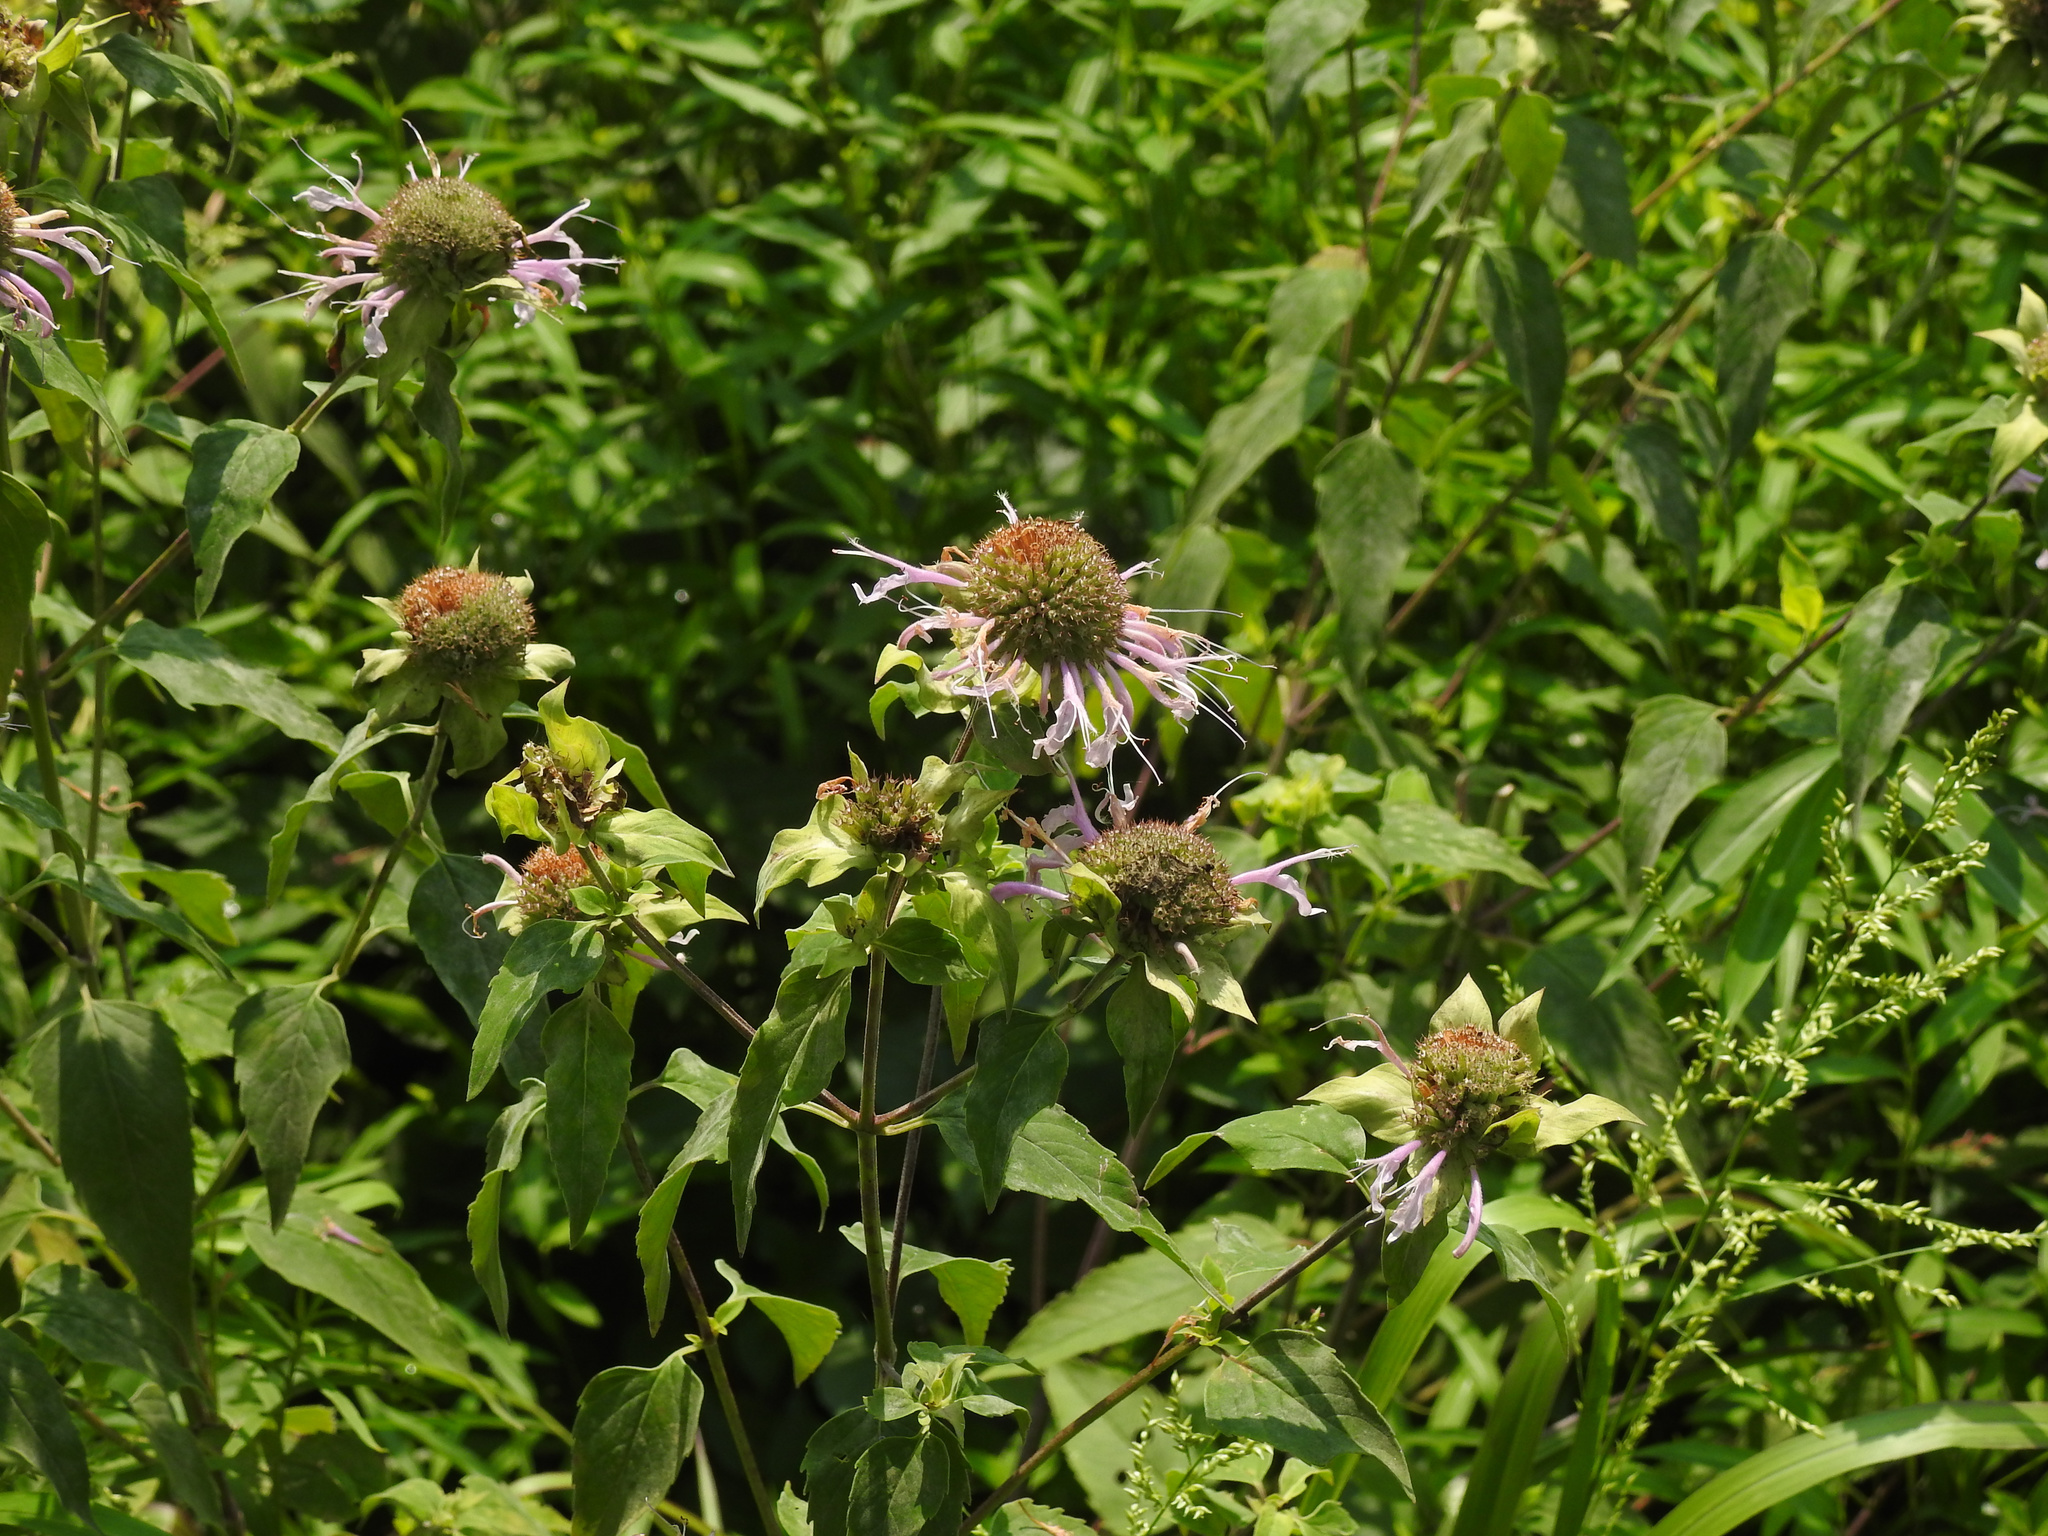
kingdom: Plantae
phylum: Tracheophyta
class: Magnoliopsida
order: Lamiales
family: Lamiaceae
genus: Monarda
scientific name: Monarda fistulosa
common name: Purple beebalm
